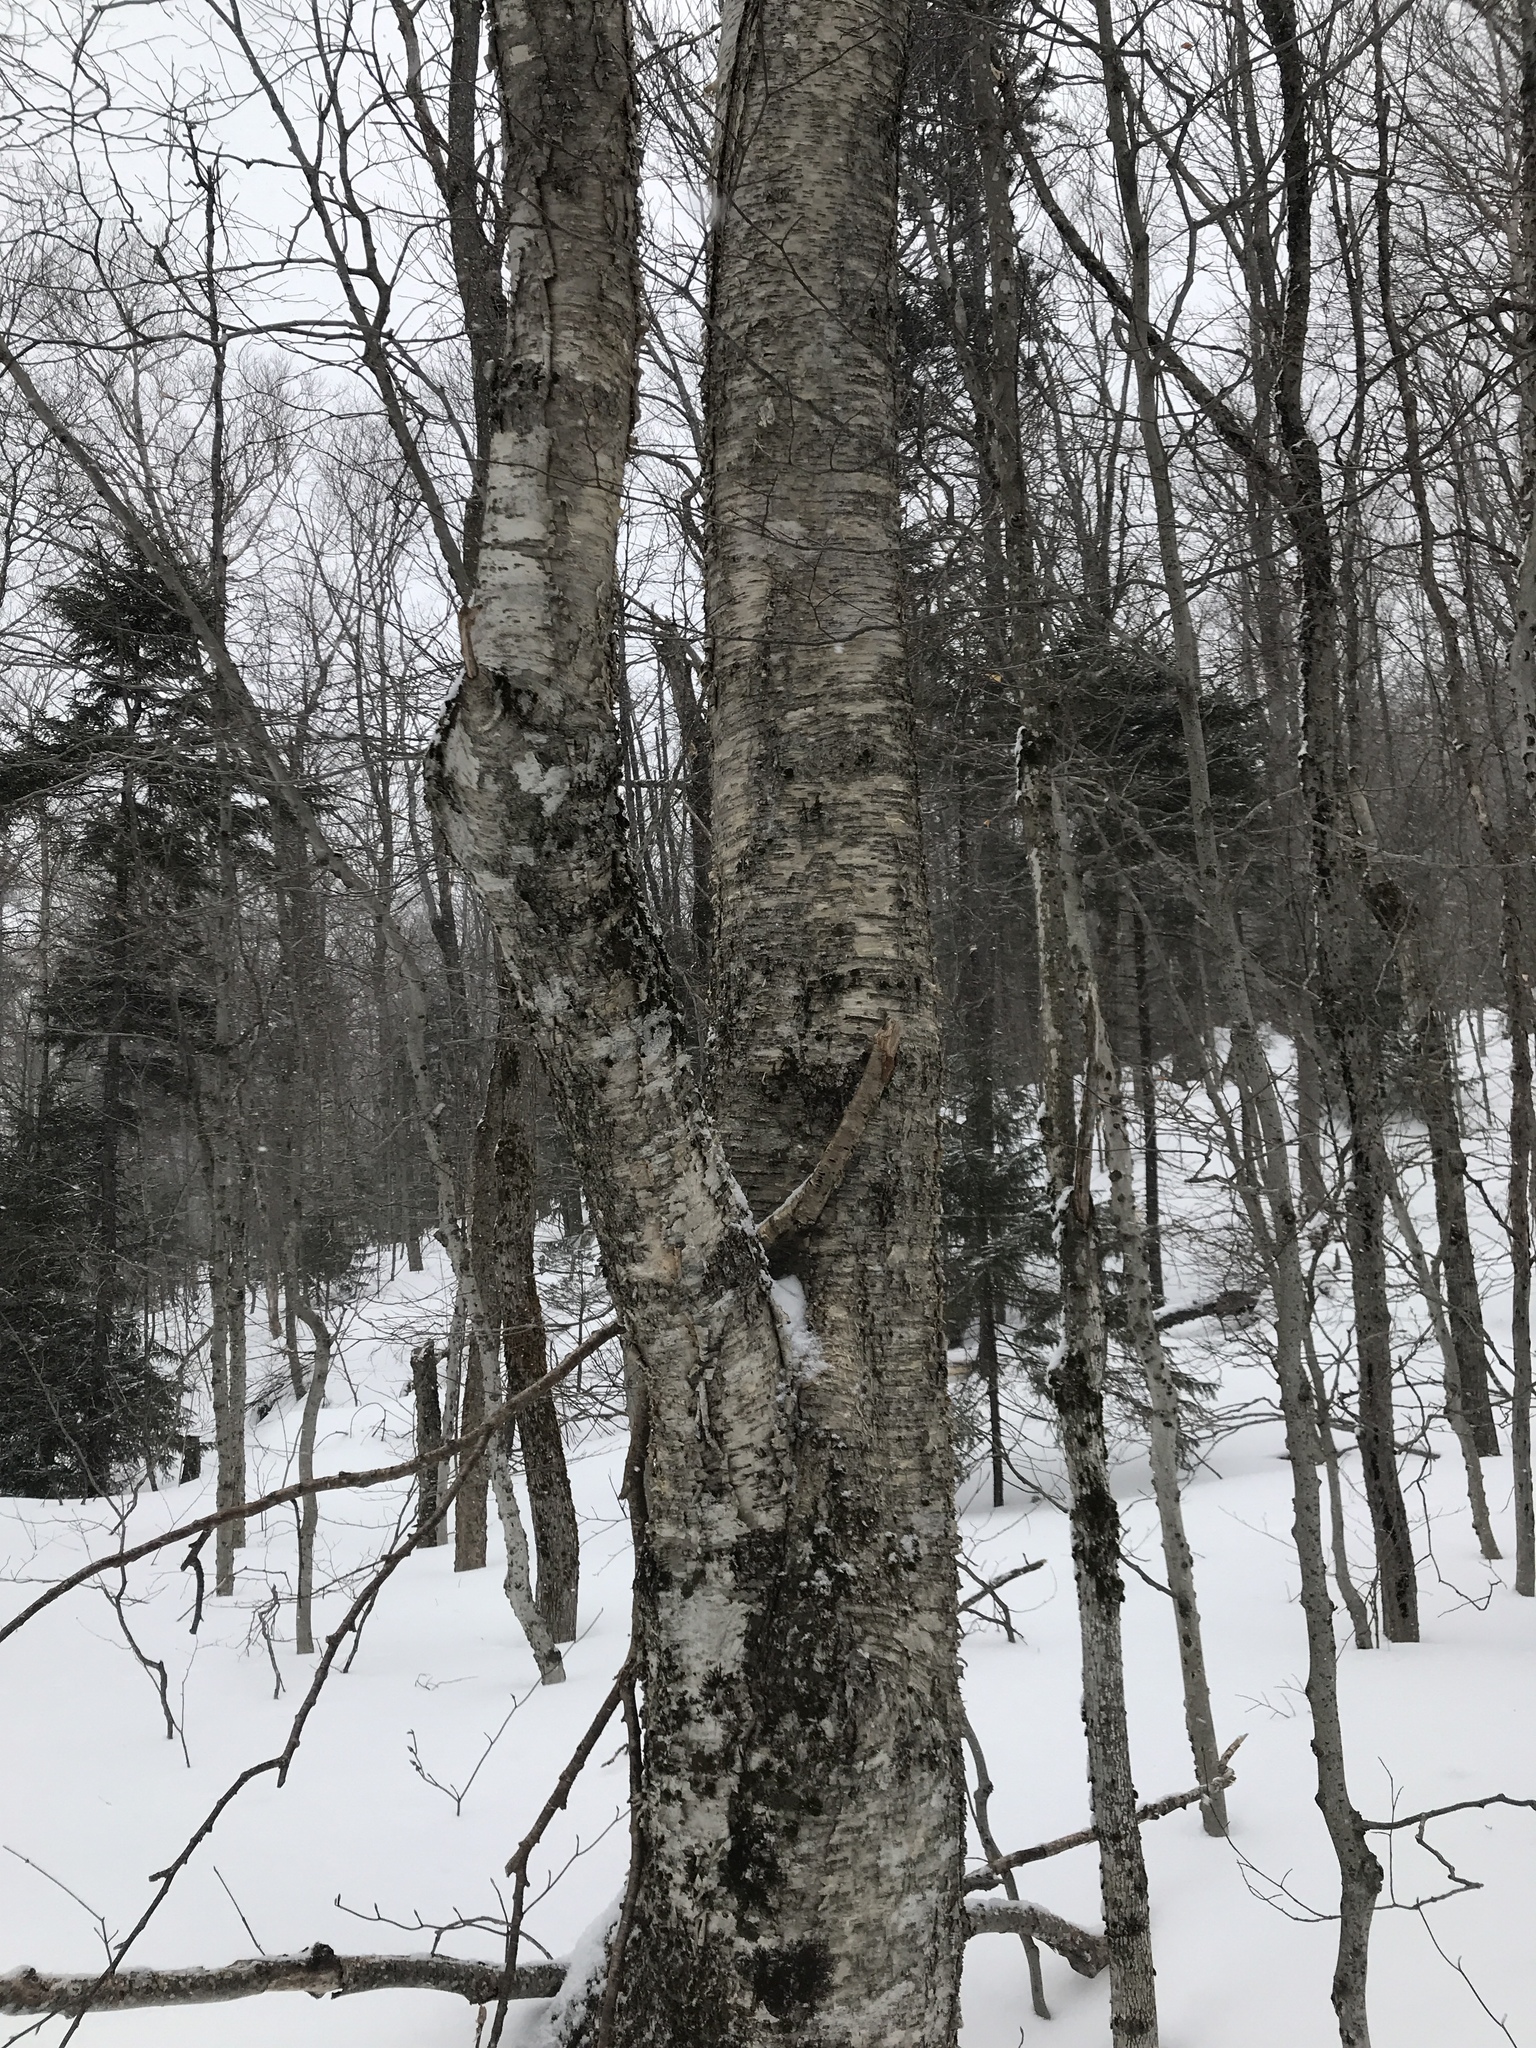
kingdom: Plantae
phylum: Tracheophyta
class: Magnoliopsida
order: Fagales
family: Betulaceae
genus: Betula
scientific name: Betula alleghaniensis
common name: Yellow birch
